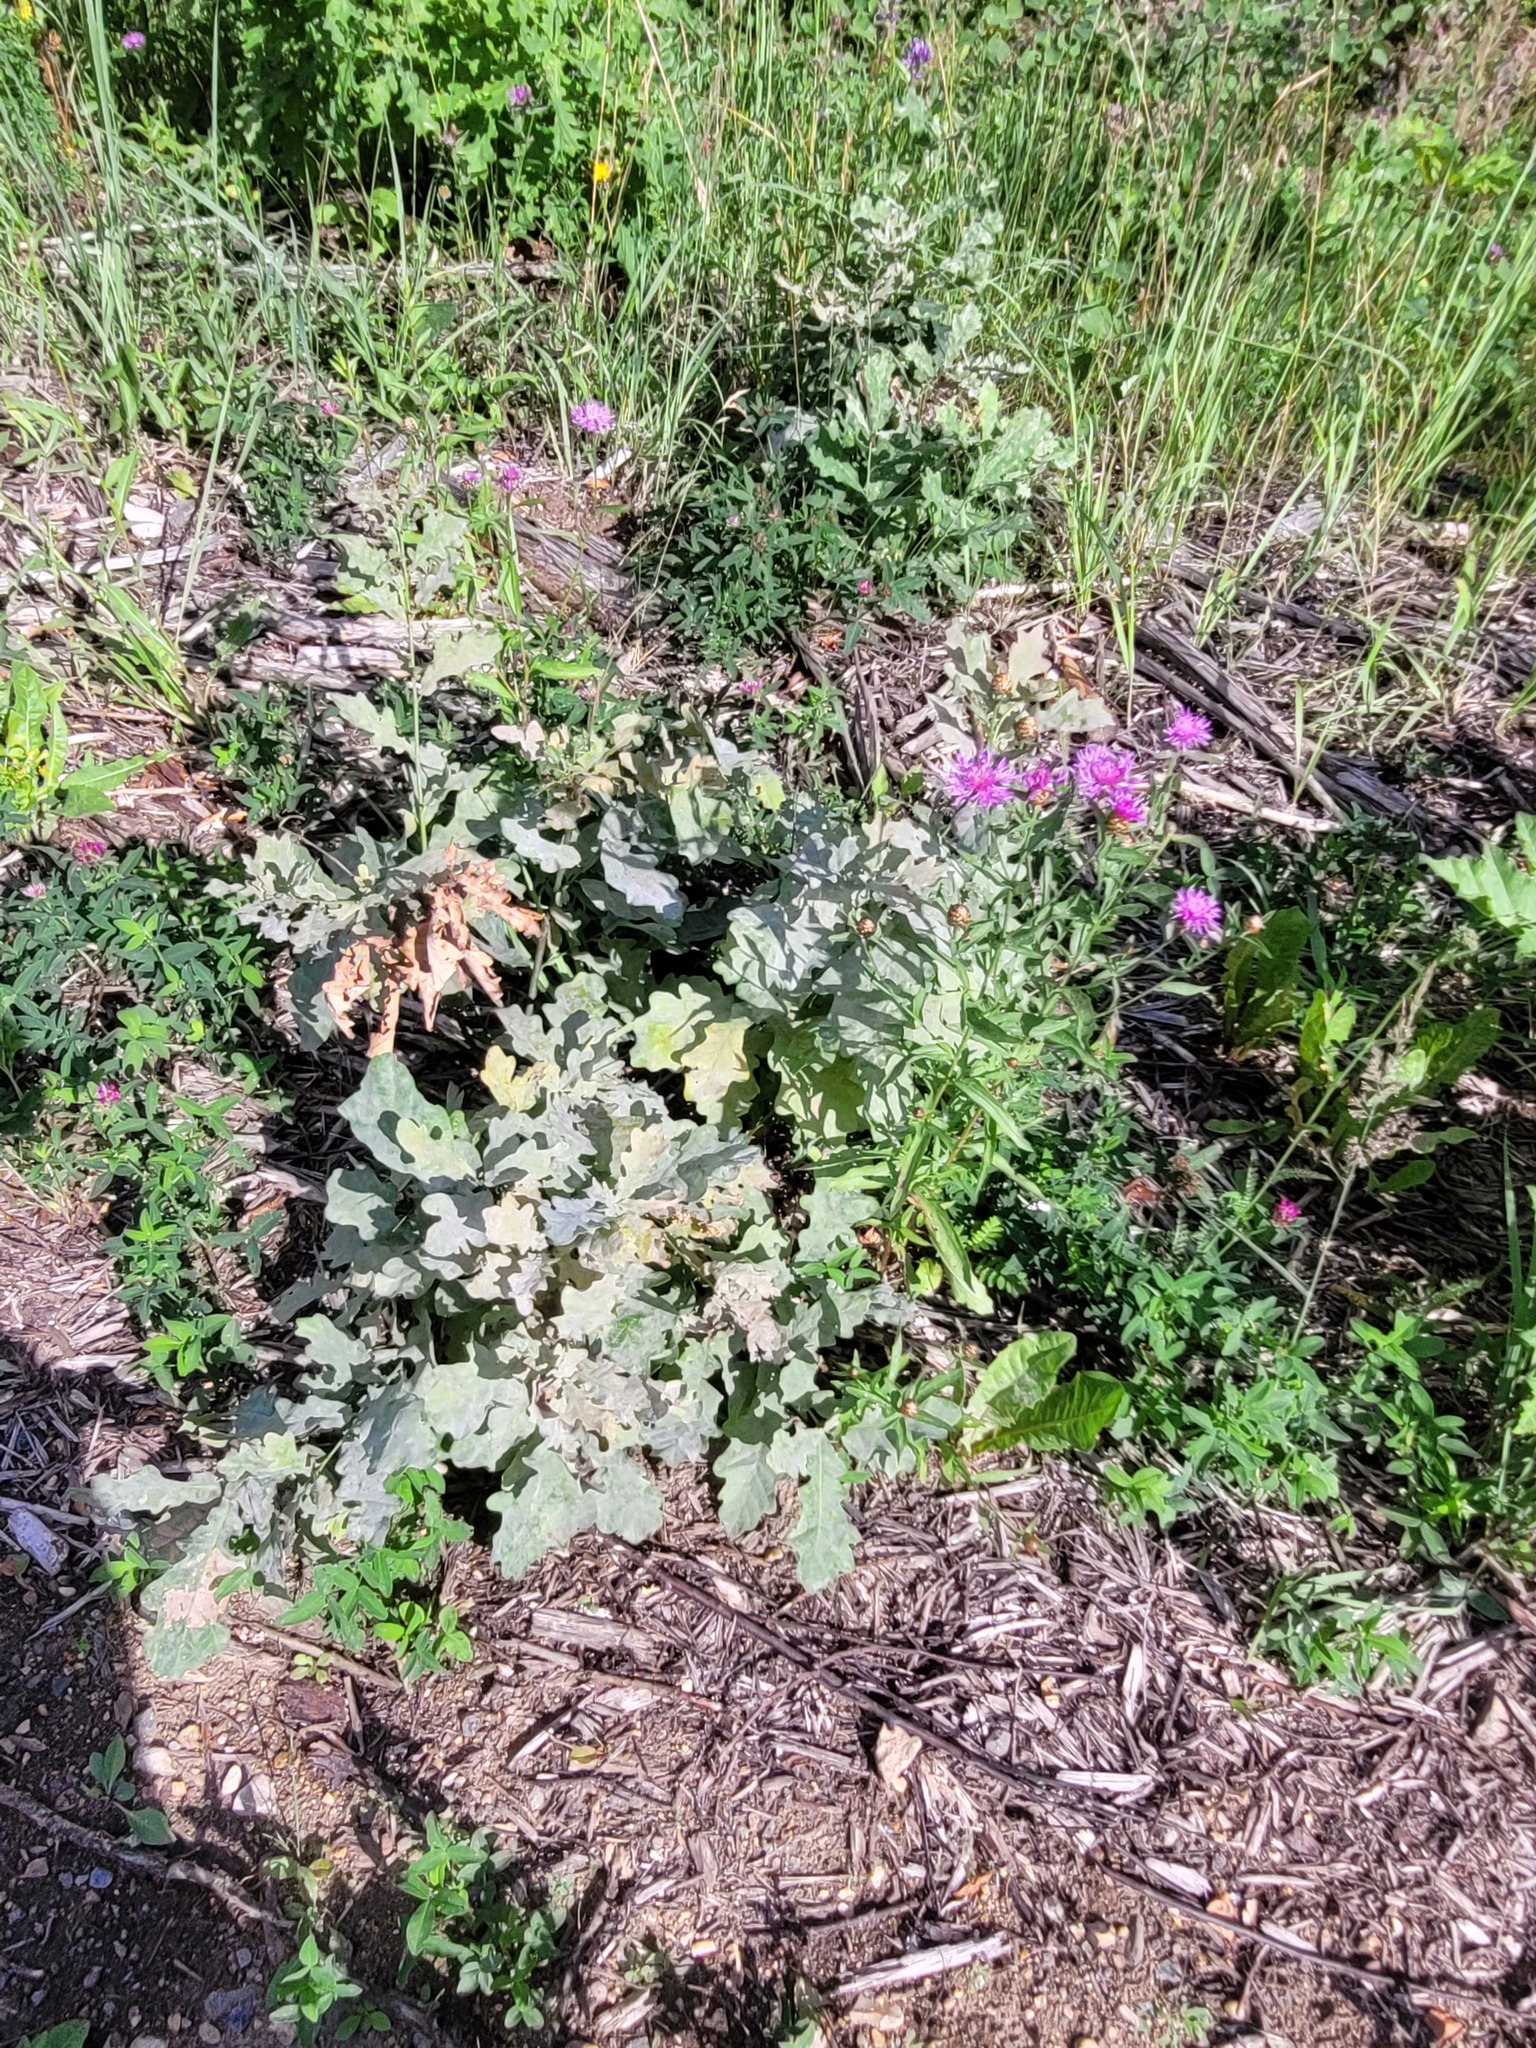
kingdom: Plantae
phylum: Tracheophyta
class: Magnoliopsida
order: Fagales
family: Fagaceae
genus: Quercus
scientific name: Quercus robur
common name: Pedunculate oak
